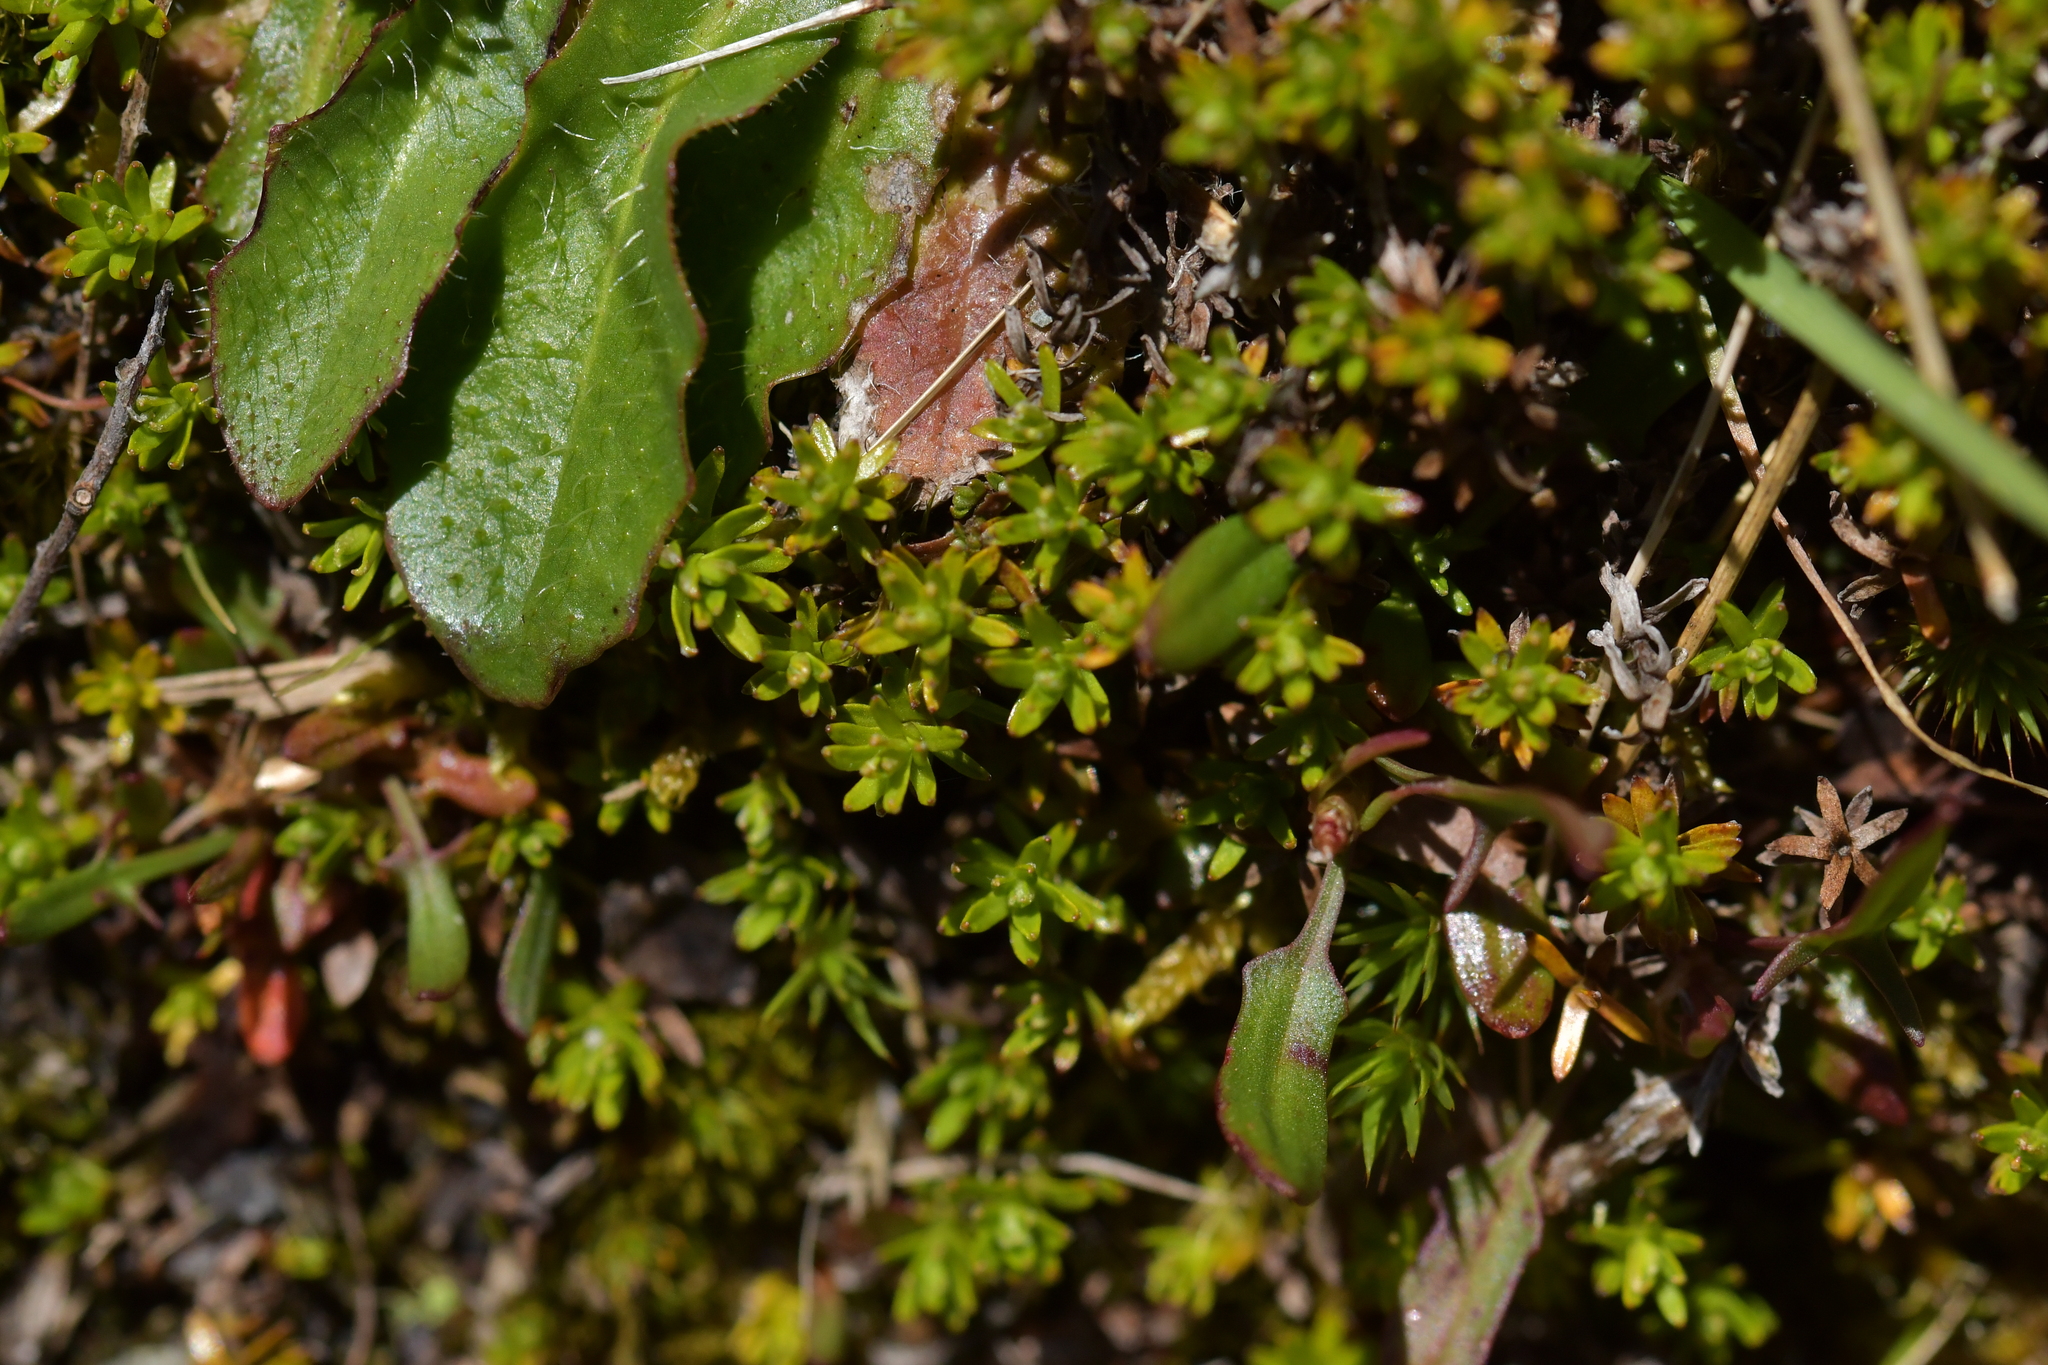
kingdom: Plantae
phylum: Tracheophyta
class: Magnoliopsida
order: Asterales
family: Asteraceae
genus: Raoulia
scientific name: Raoulia glabra
